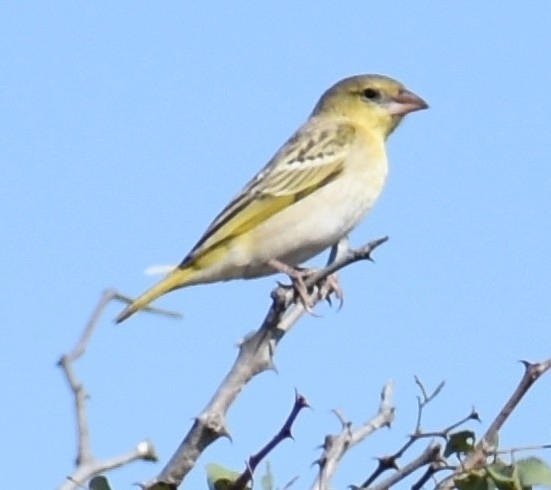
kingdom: Animalia
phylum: Chordata
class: Aves
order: Passeriformes
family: Ploceidae
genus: Ploceus
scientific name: Ploceus velatus
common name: Southern masked weaver
